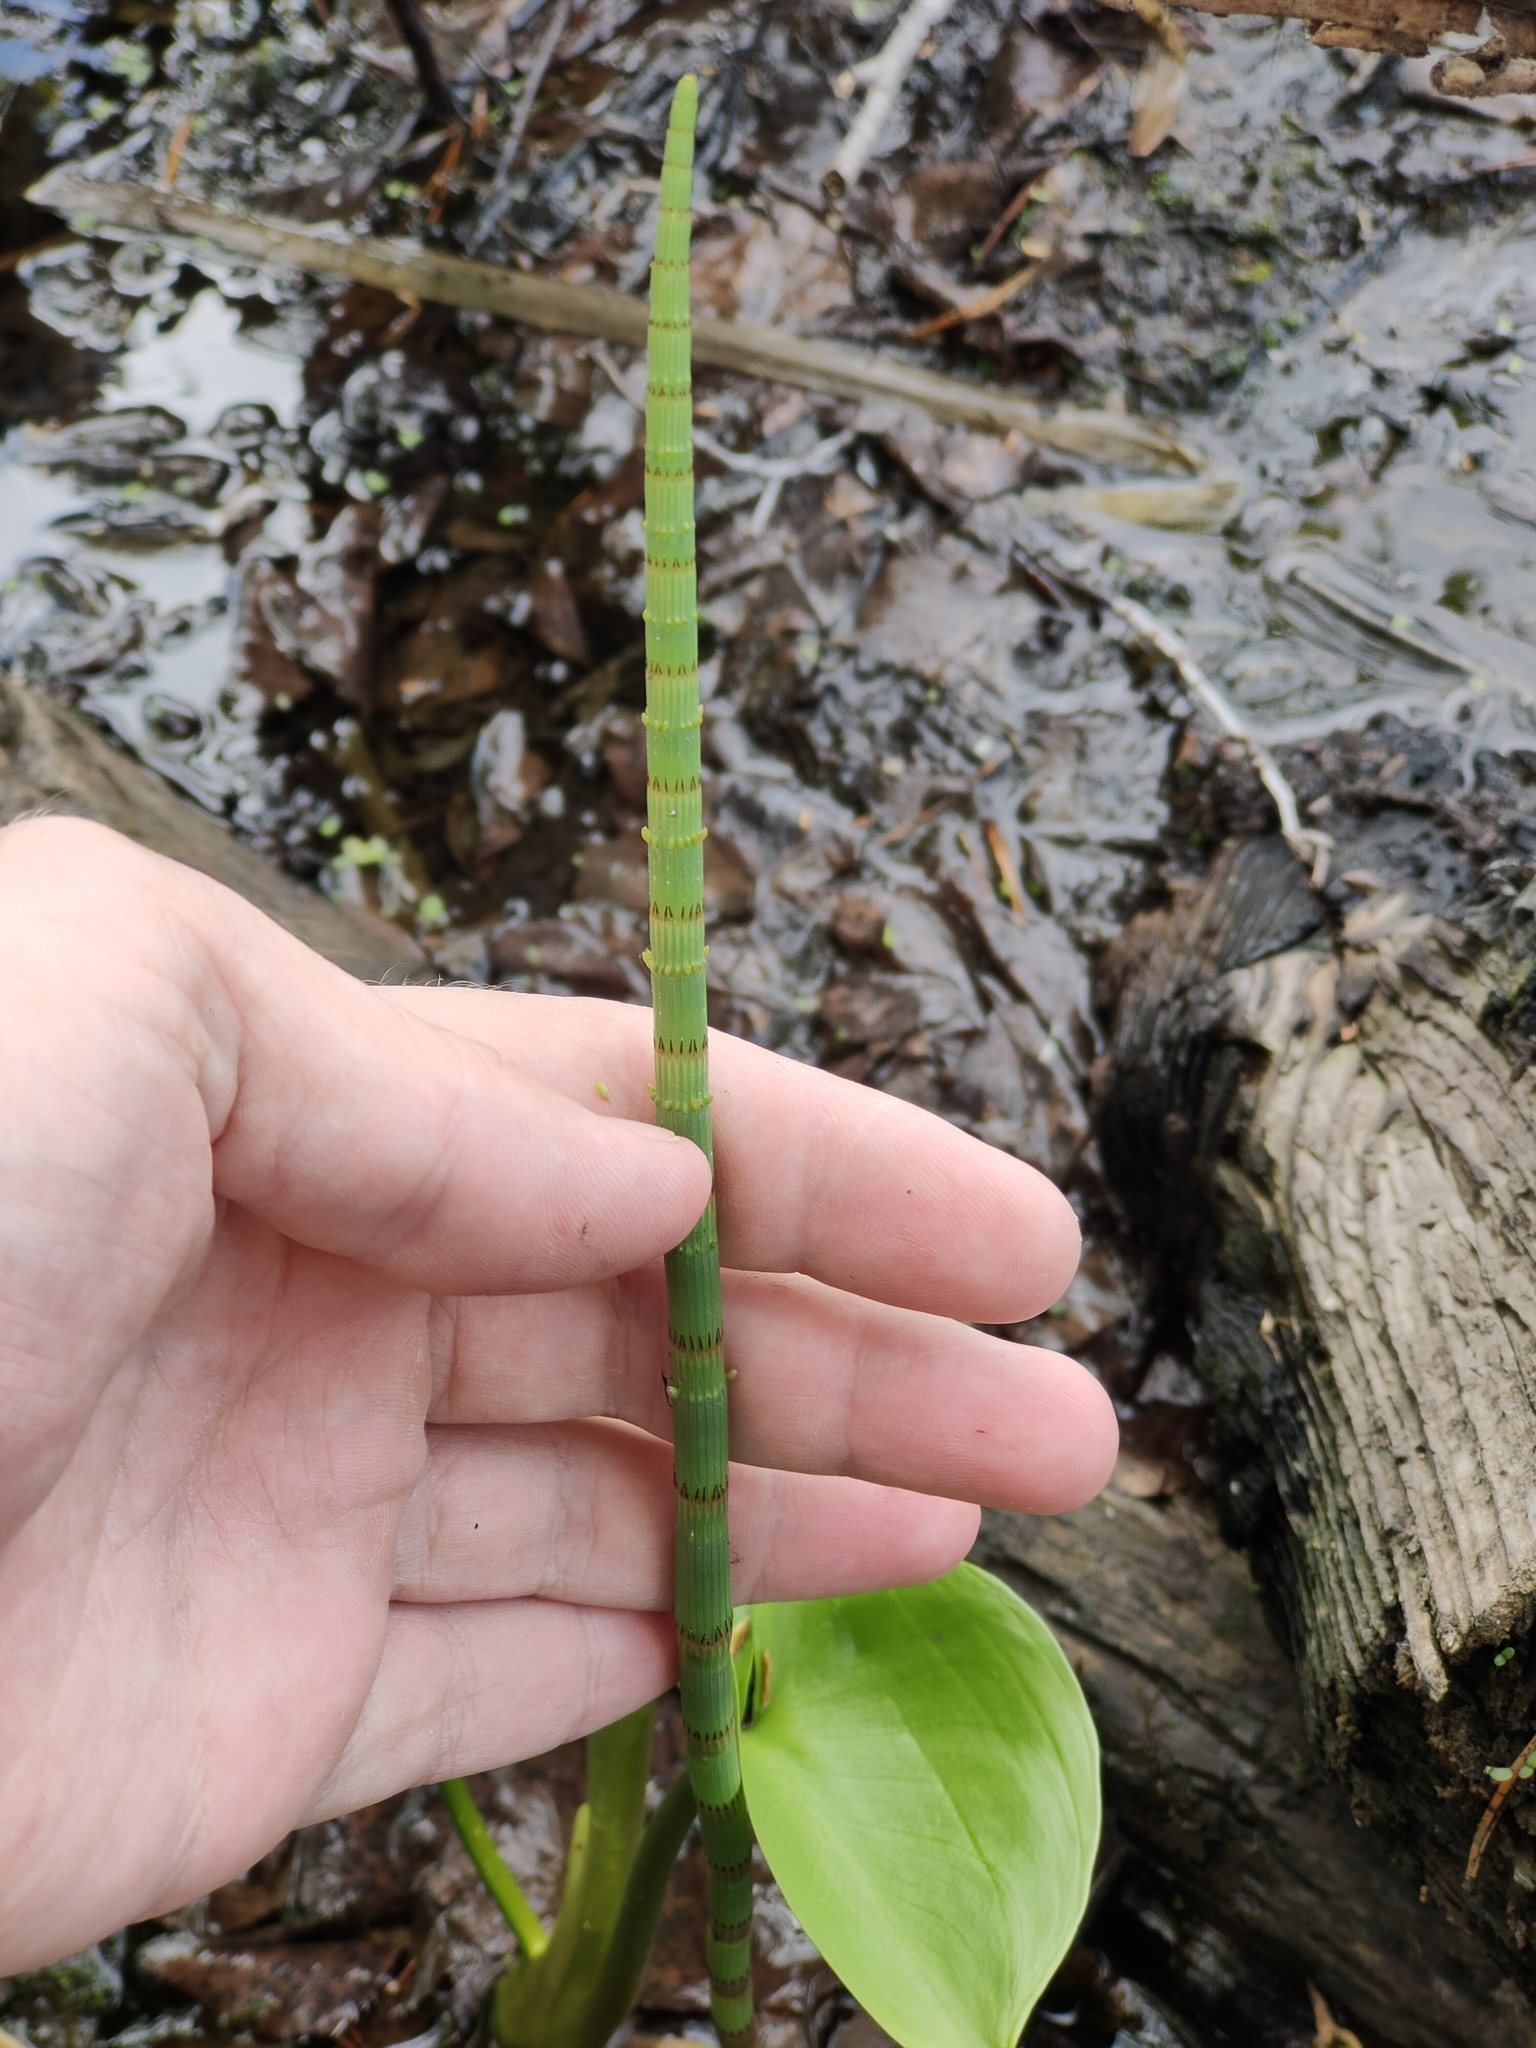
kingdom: Plantae
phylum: Tracheophyta
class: Polypodiopsida
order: Equisetales
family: Equisetaceae
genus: Equisetum
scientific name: Equisetum fluviatile
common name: Water horsetail
